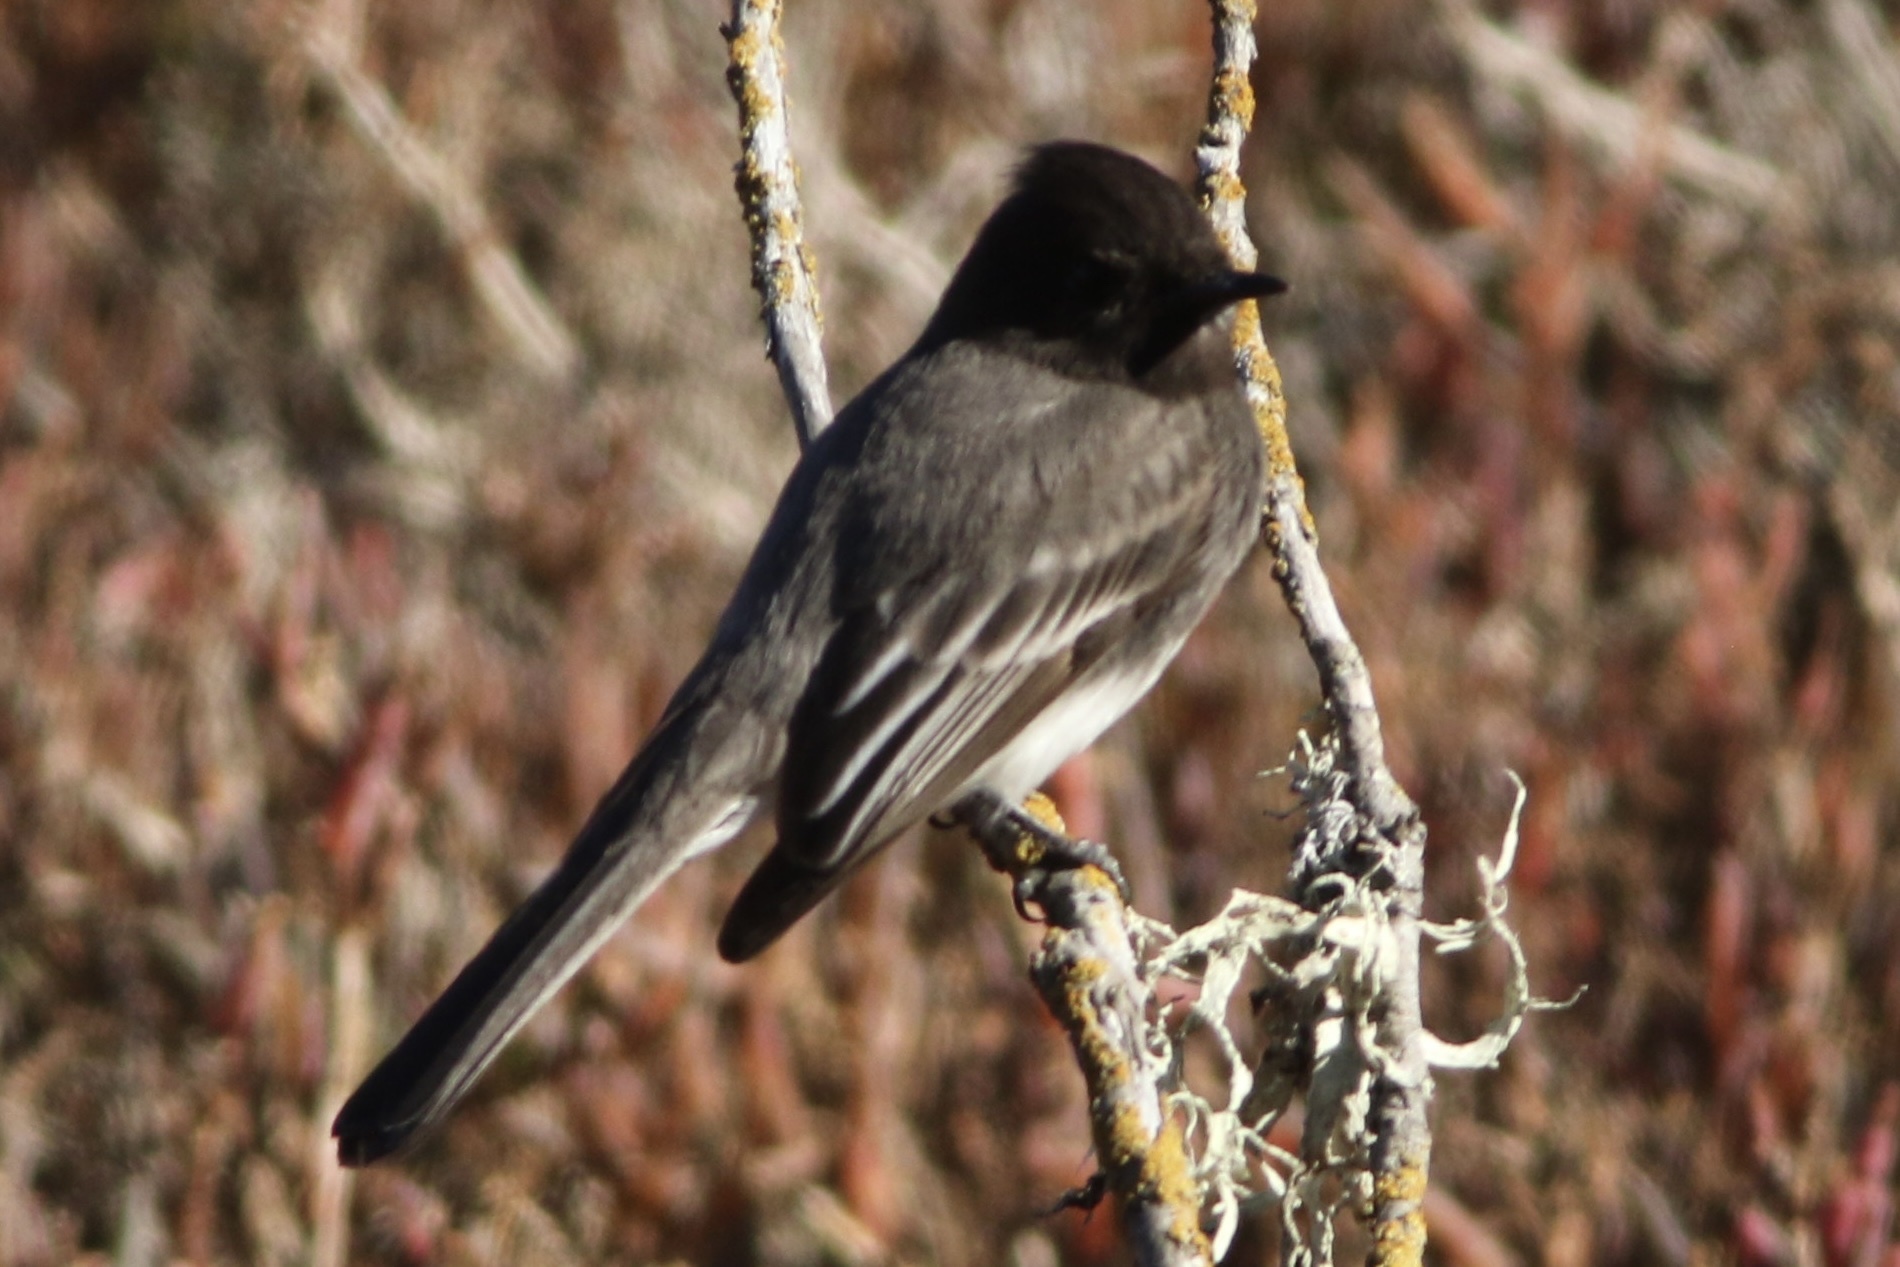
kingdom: Animalia
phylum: Chordata
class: Aves
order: Passeriformes
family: Tyrannidae
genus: Sayornis
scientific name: Sayornis nigricans
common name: Black phoebe
